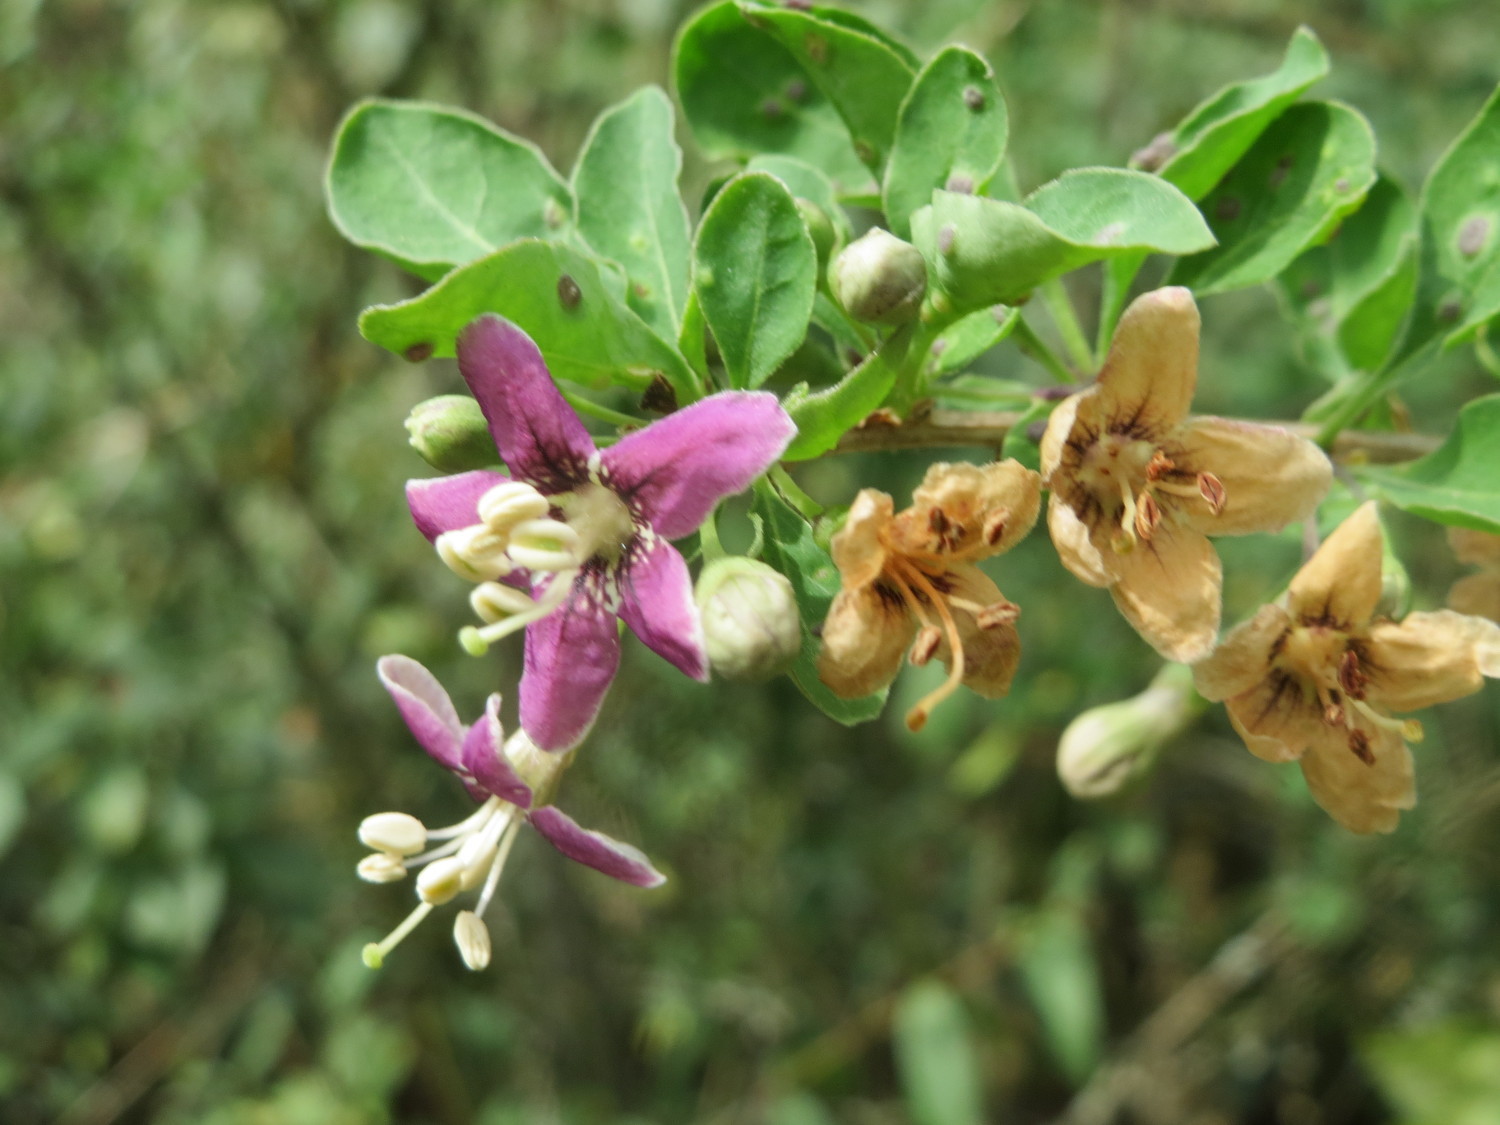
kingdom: Plantae
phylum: Tracheophyta
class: Magnoliopsida
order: Solanales
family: Solanaceae
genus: Lycium
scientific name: Lycium barbarum
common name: Duke of argyll's teaplant
